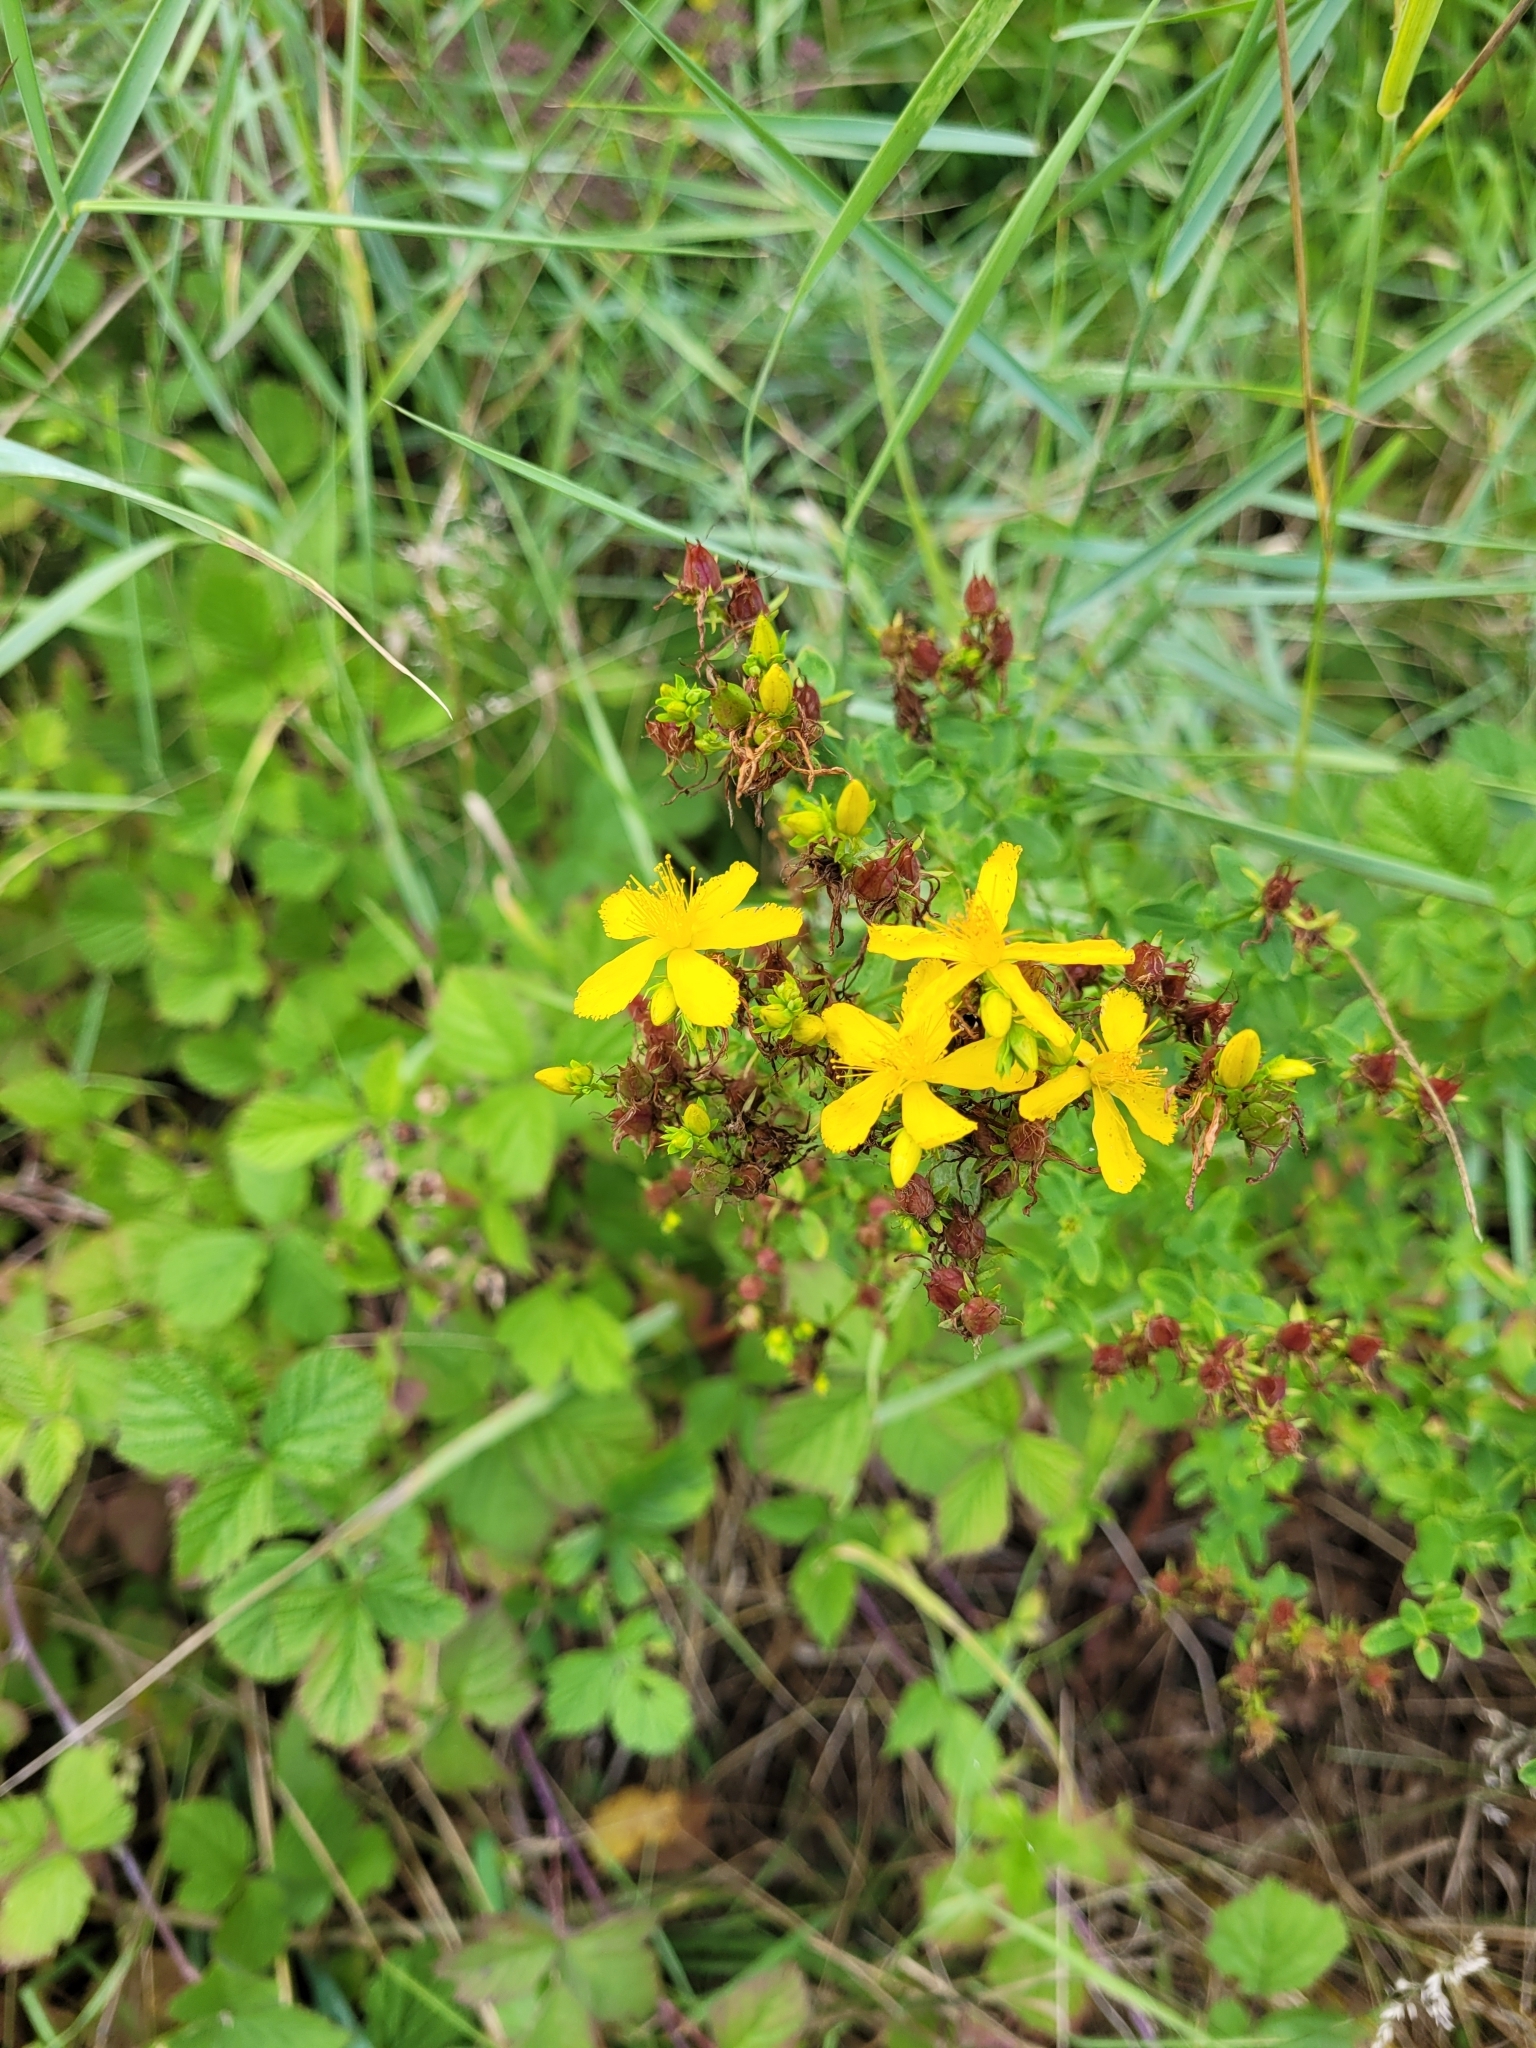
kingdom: Plantae
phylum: Tracheophyta
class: Magnoliopsida
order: Malpighiales
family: Hypericaceae
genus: Hypericum
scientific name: Hypericum perforatum
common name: Common st. johnswort
